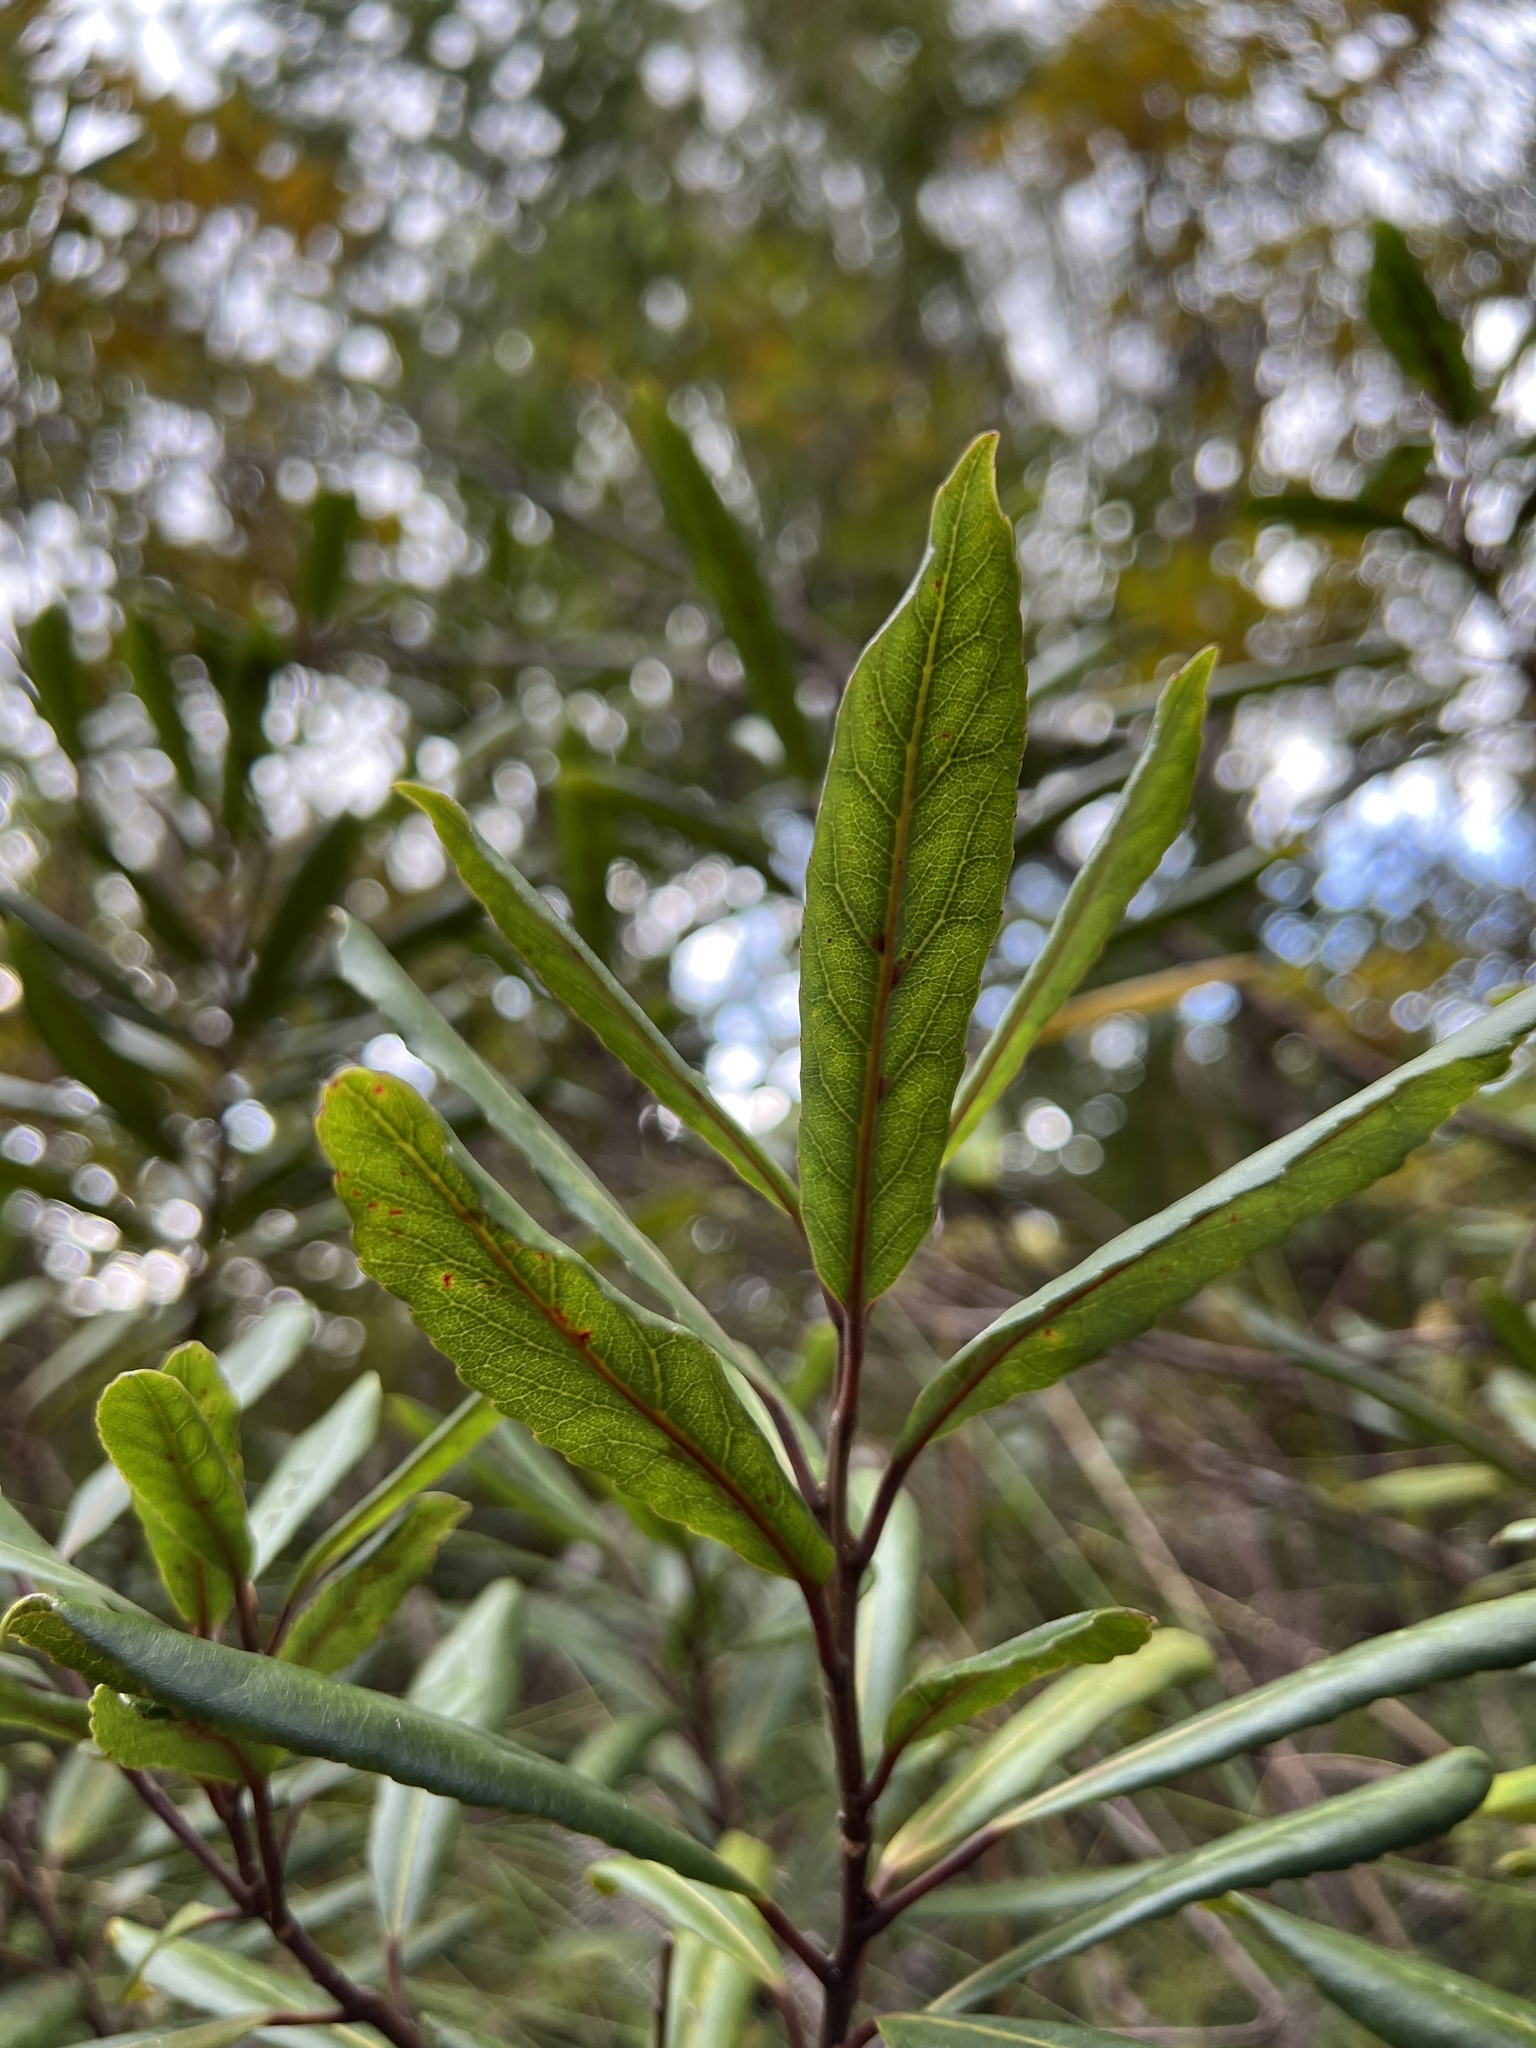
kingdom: Plantae
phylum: Tracheophyta
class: Magnoliopsida
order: Oxalidales
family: Elaeocarpaceae
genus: Elaeocarpus
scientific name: Elaeocarpus dentatus
